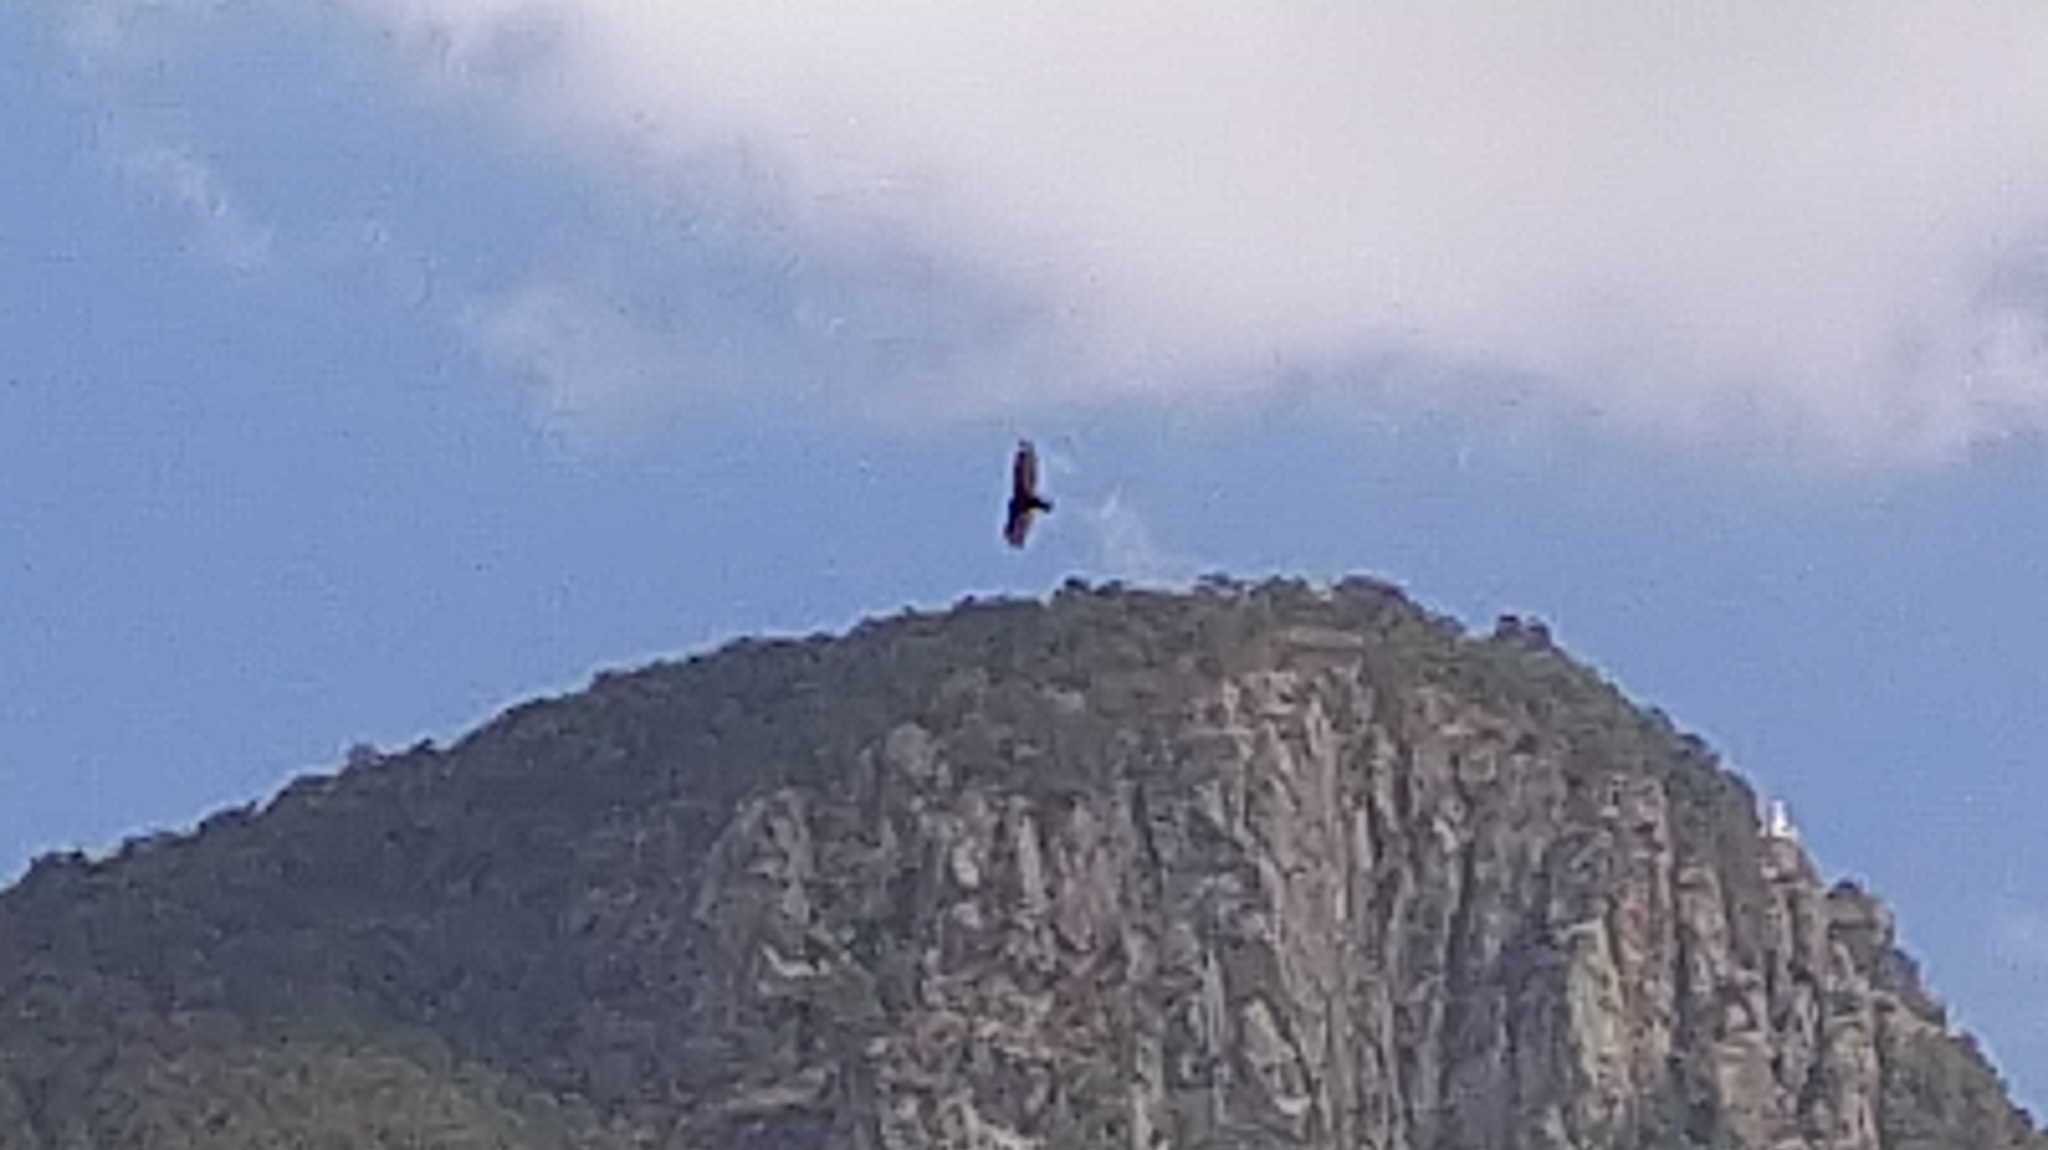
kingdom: Animalia
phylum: Chordata
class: Aves
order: Accipitriformes
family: Cathartidae
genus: Cathartes
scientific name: Cathartes aura
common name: Turkey vulture
